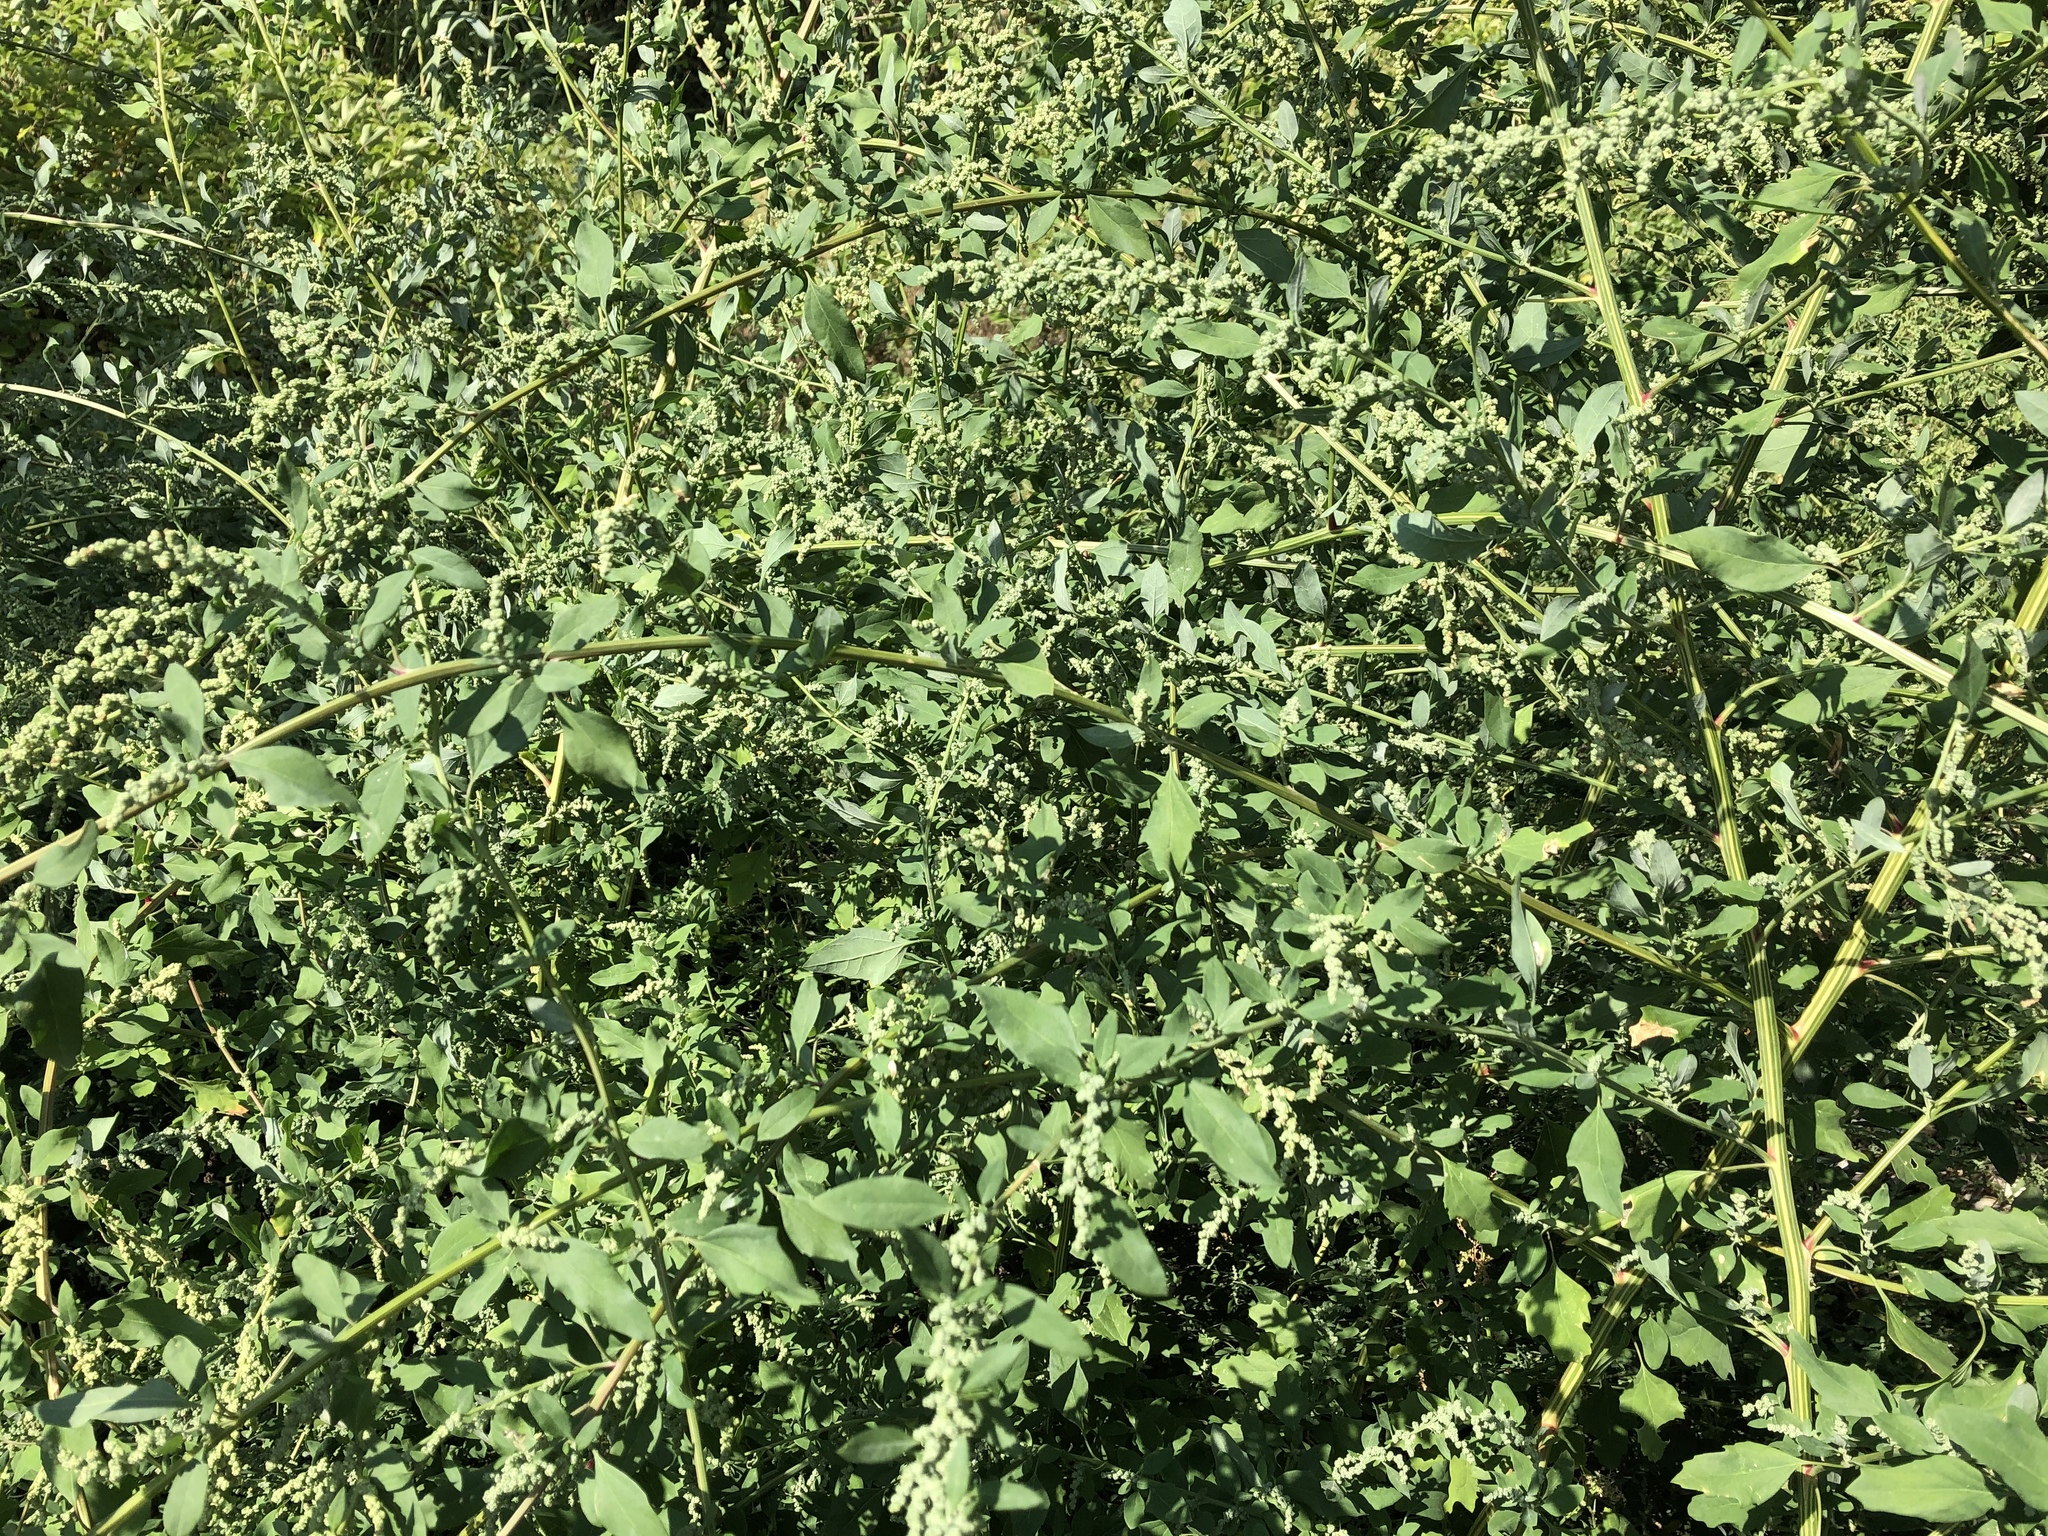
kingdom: Plantae
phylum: Tracheophyta
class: Magnoliopsida
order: Caryophyllales
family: Amaranthaceae
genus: Chenopodium
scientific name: Chenopodium album
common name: Fat-hen
